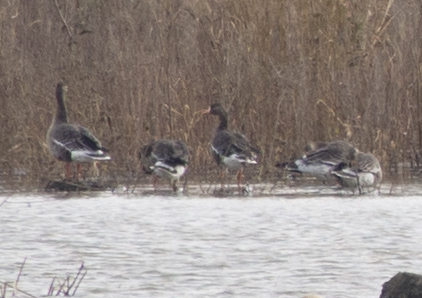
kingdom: Animalia
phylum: Chordata
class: Aves
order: Anseriformes
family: Anatidae
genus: Anser
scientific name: Anser albifrons
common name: Greater white-fronted goose
